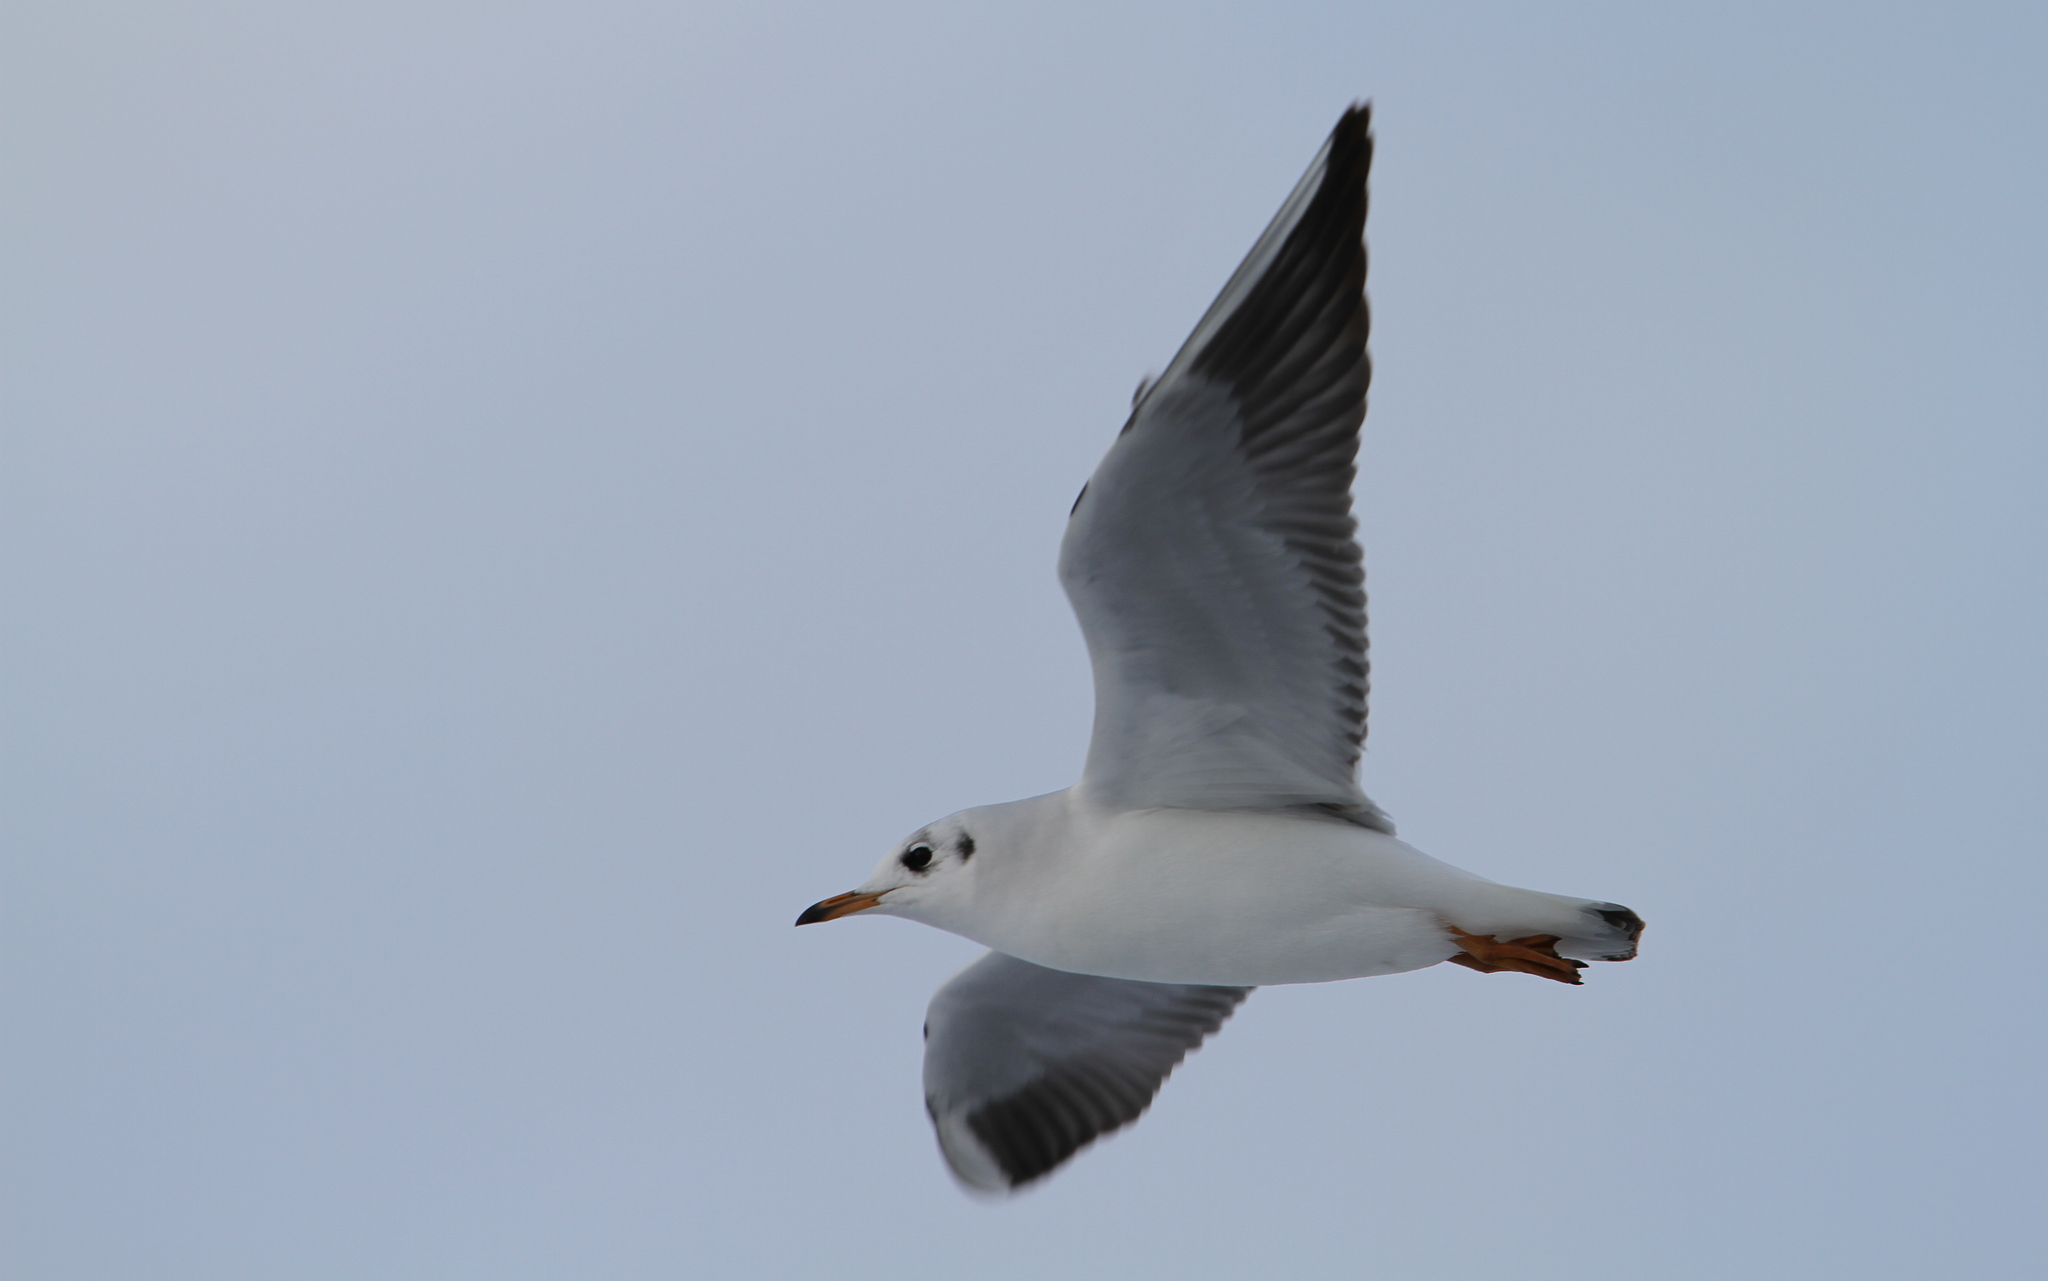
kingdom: Animalia
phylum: Chordata
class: Aves
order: Charadriiformes
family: Laridae
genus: Chroicocephalus
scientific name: Chroicocephalus ridibundus
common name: Black-headed gull
